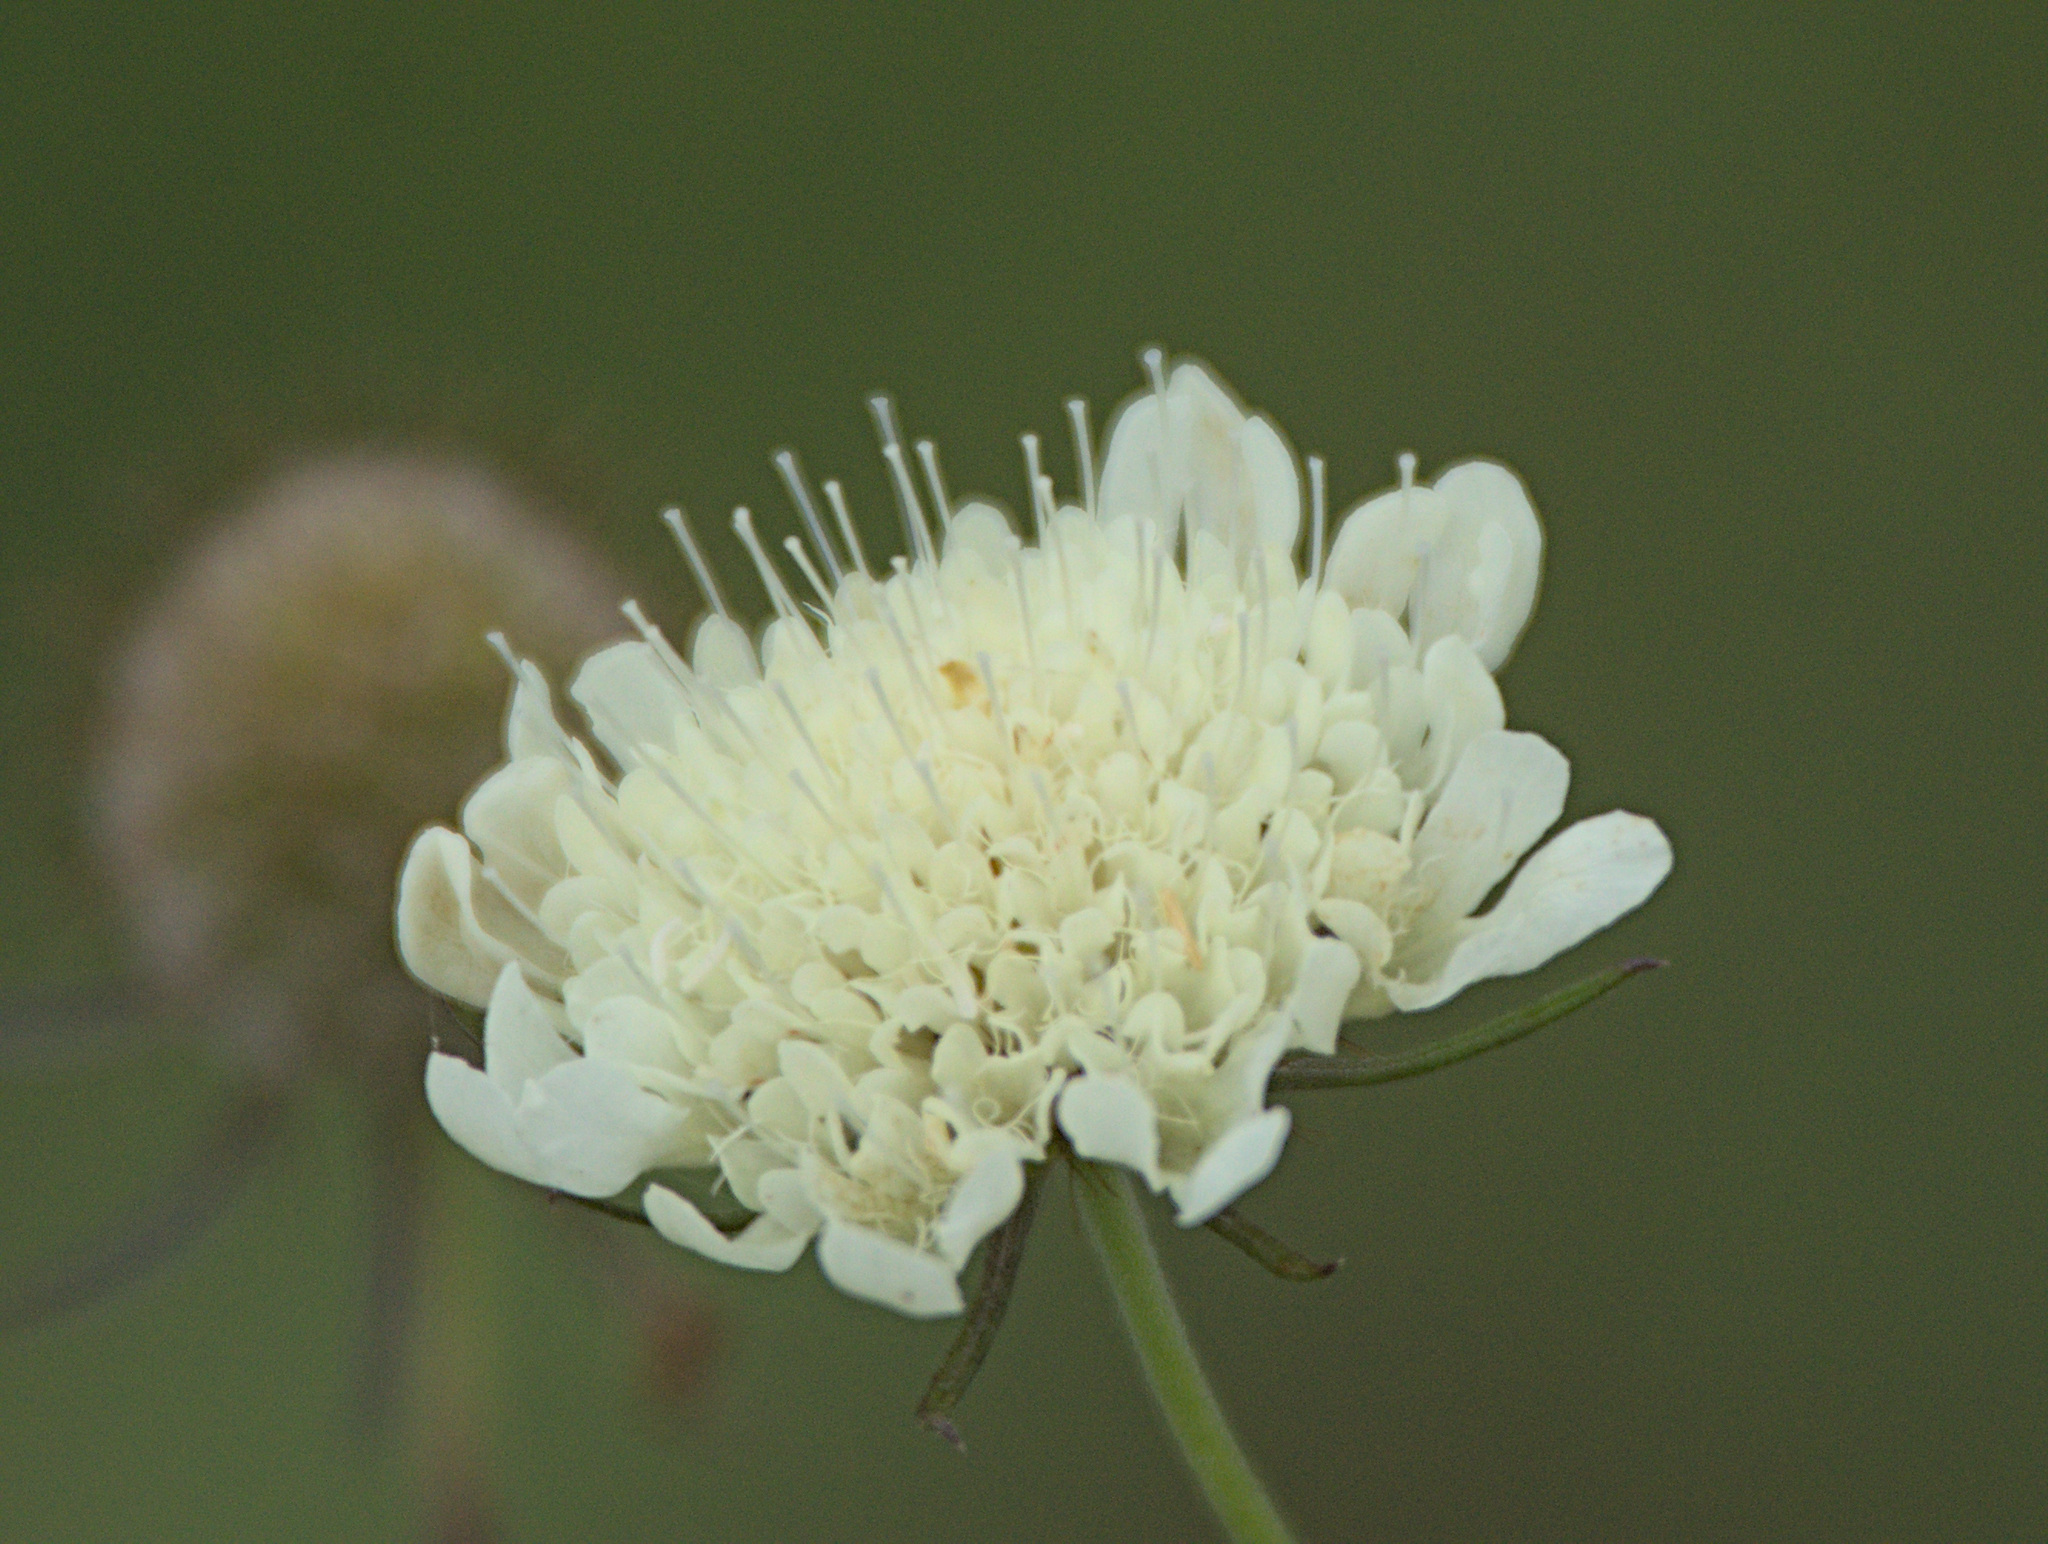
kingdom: Plantae
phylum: Tracheophyta
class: Magnoliopsida
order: Dipsacales
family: Caprifoliaceae
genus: Scabiosa
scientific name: Scabiosa ochroleuca
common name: Cream pincushions
